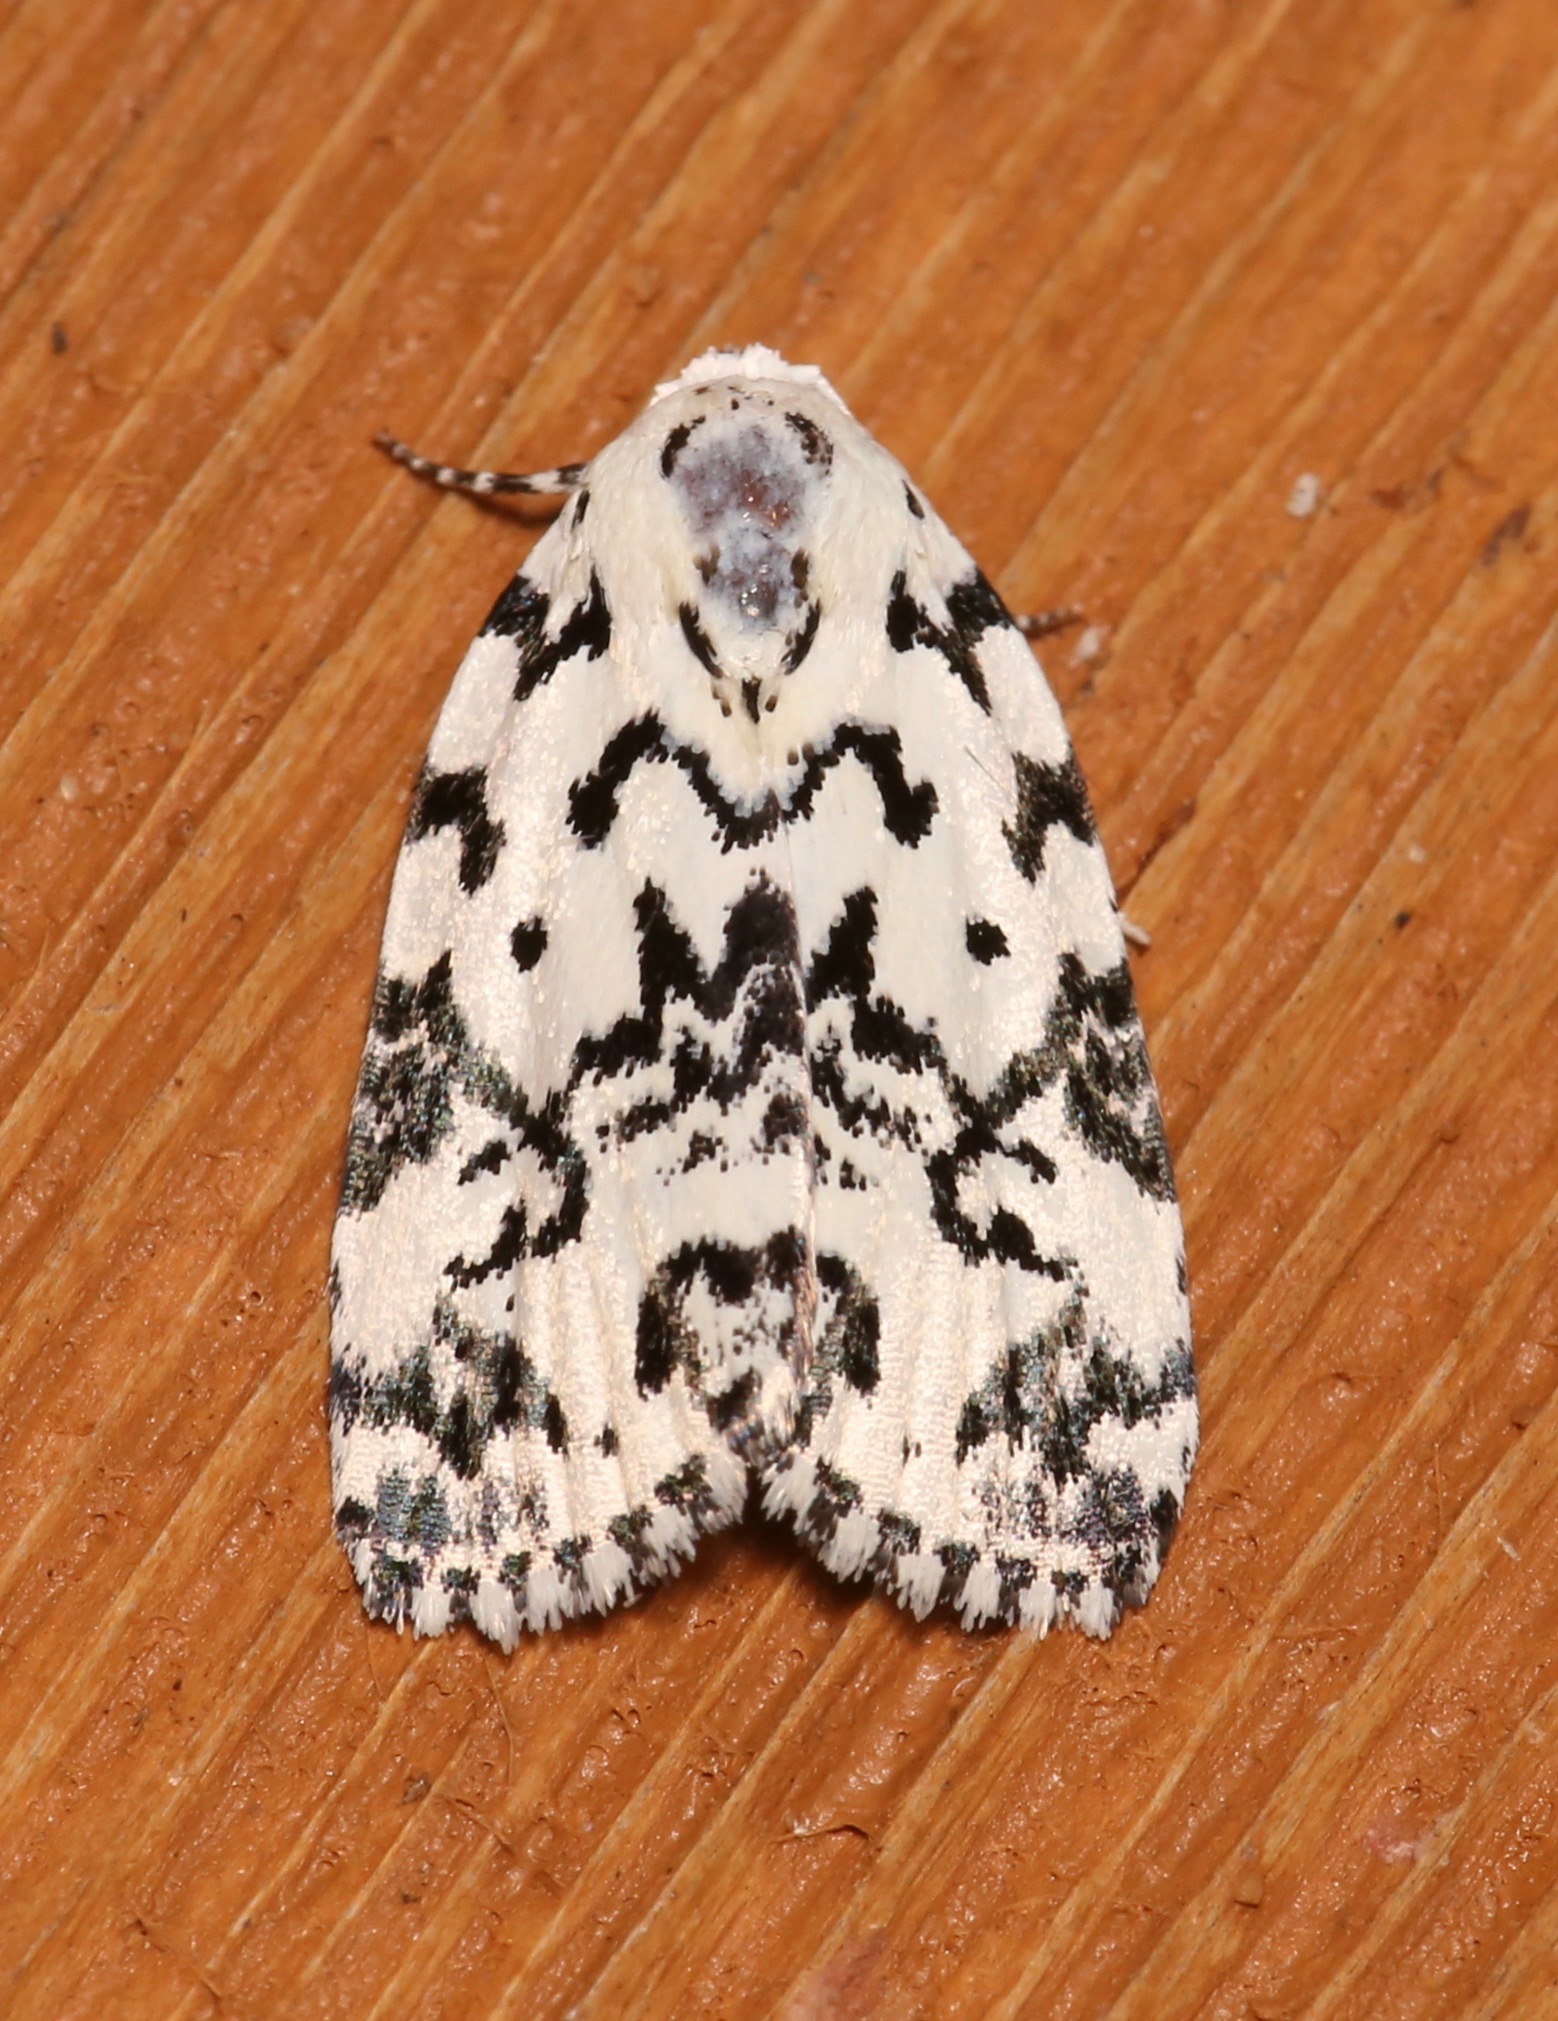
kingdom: Animalia
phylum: Arthropoda
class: Insecta
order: Lepidoptera
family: Noctuidae
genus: Polygrammate
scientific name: Polygrammate hebraeicum
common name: Hebrew moth
